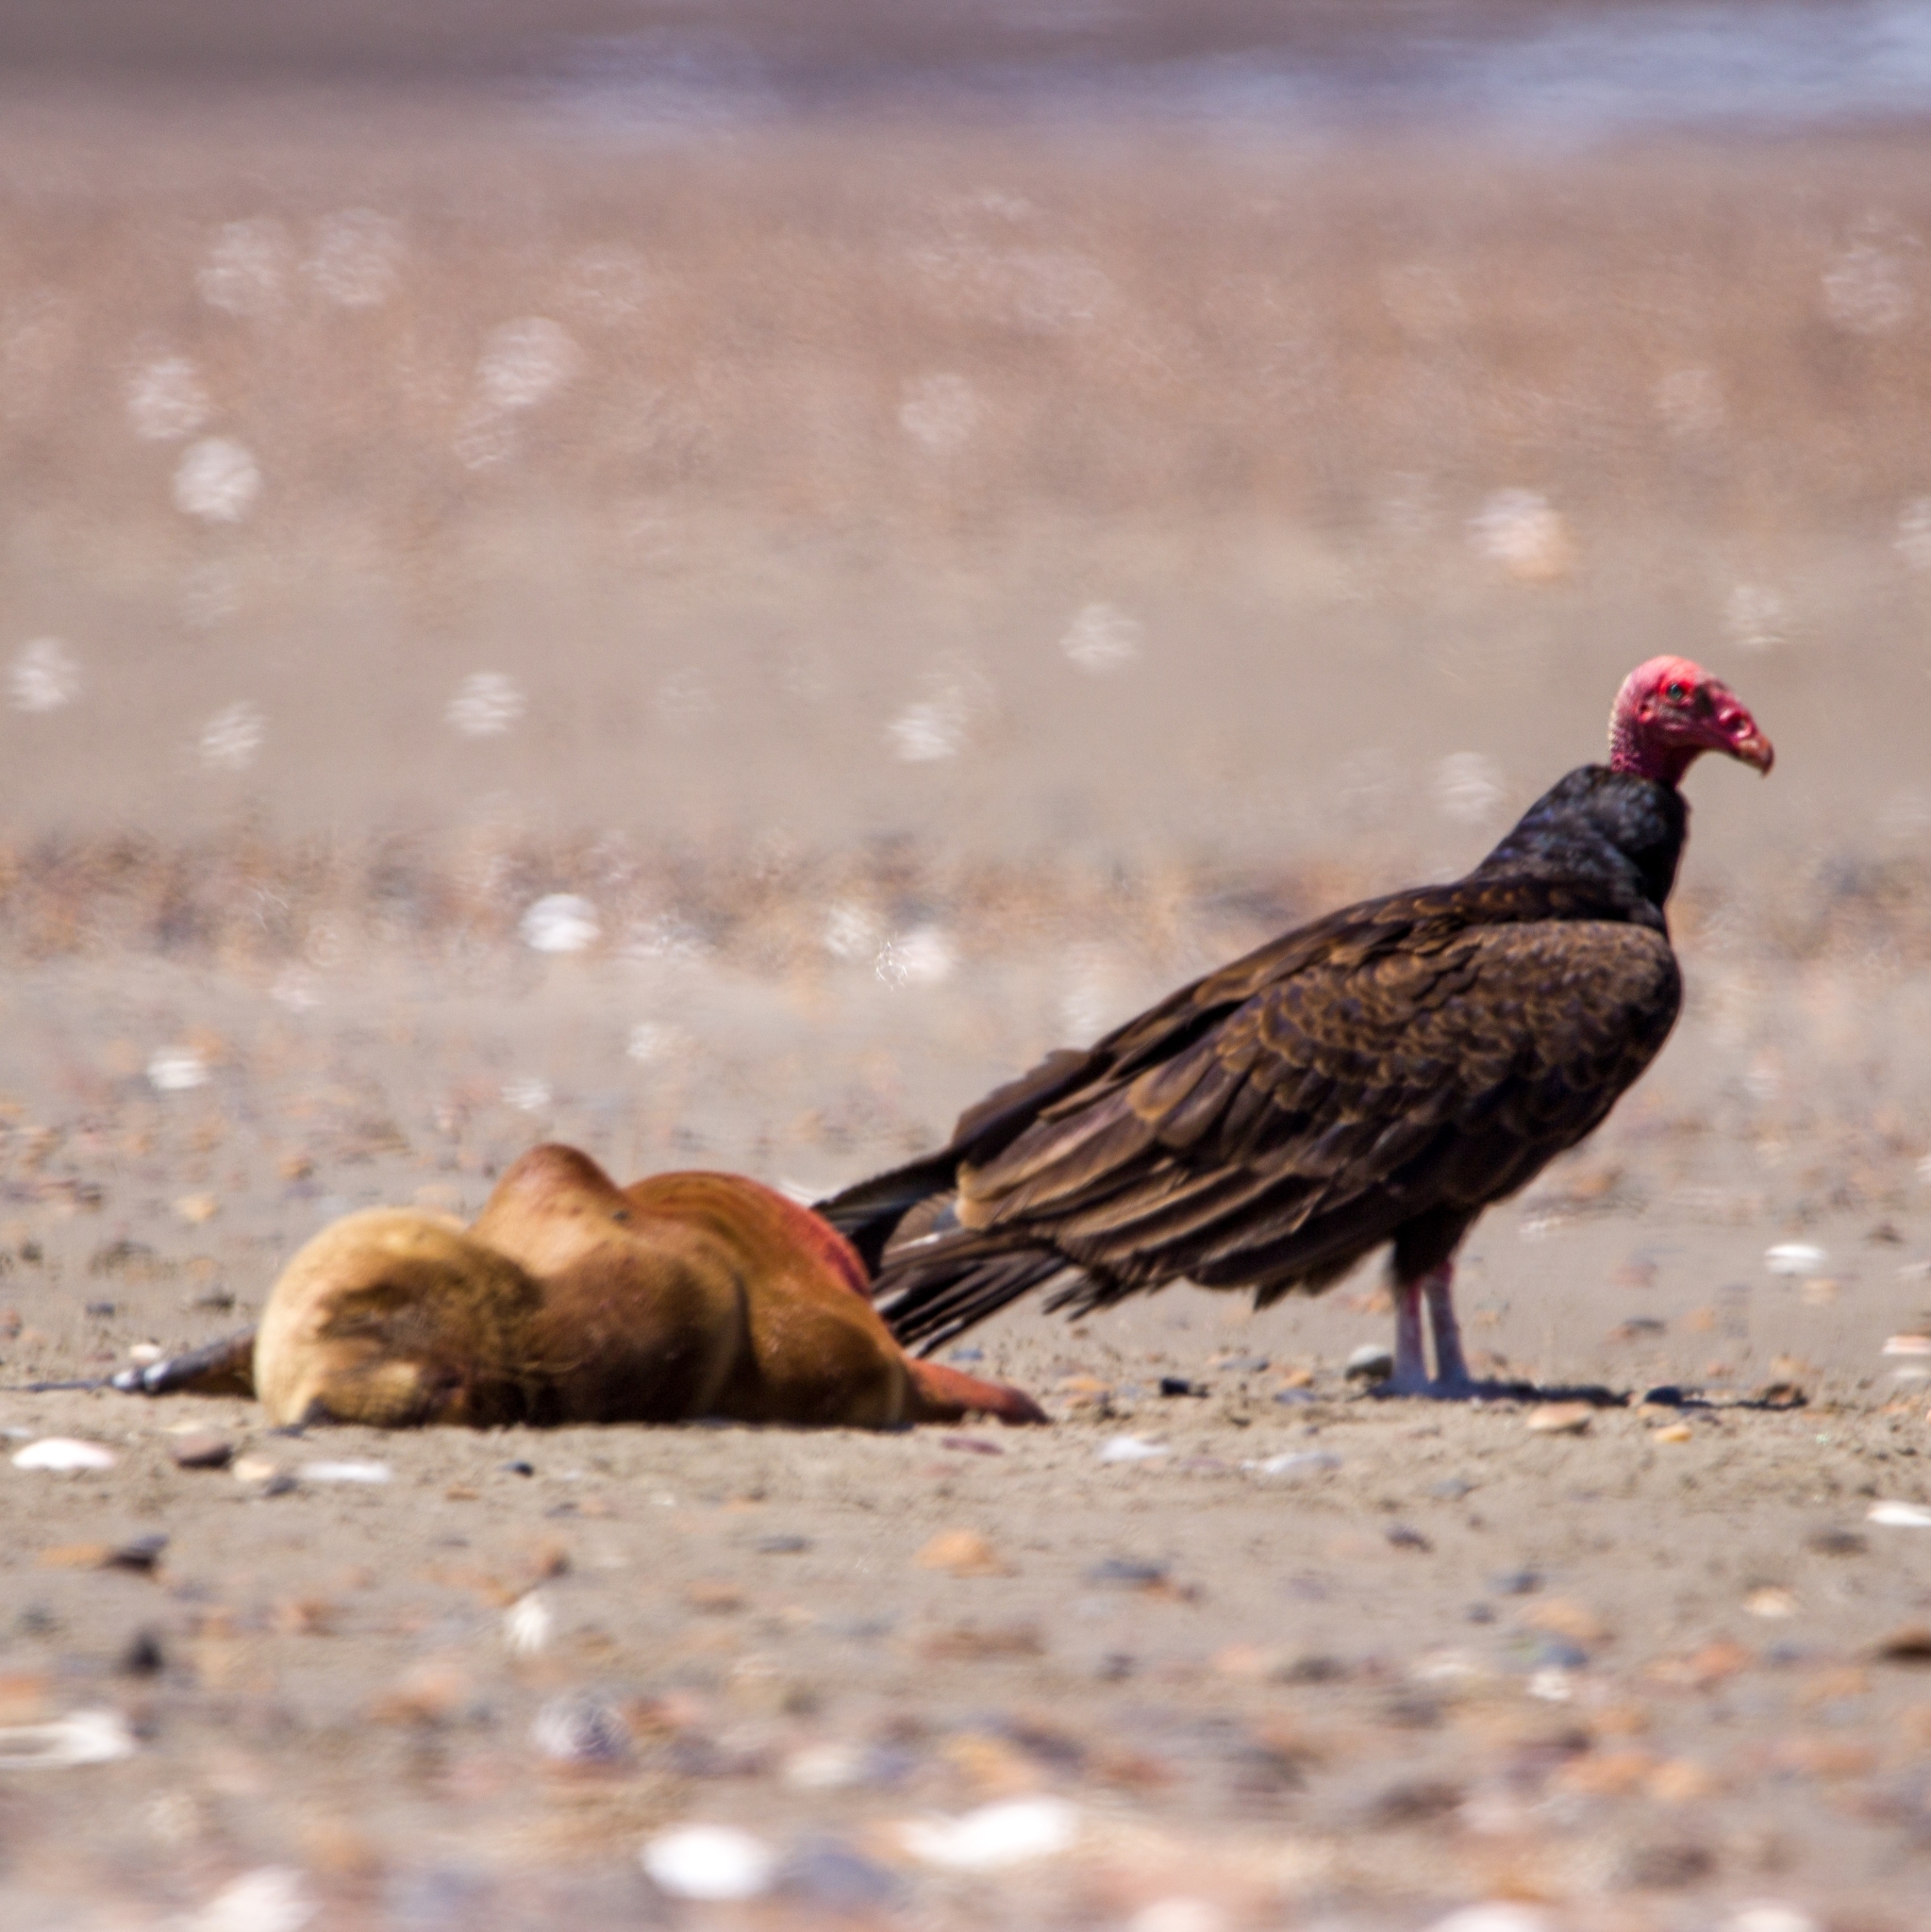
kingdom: Animalia
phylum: Chordata
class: Aves
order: Accipitriformes
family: Cathartidae
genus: Cathartes
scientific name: Cathartes aura
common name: Turkey vulture
